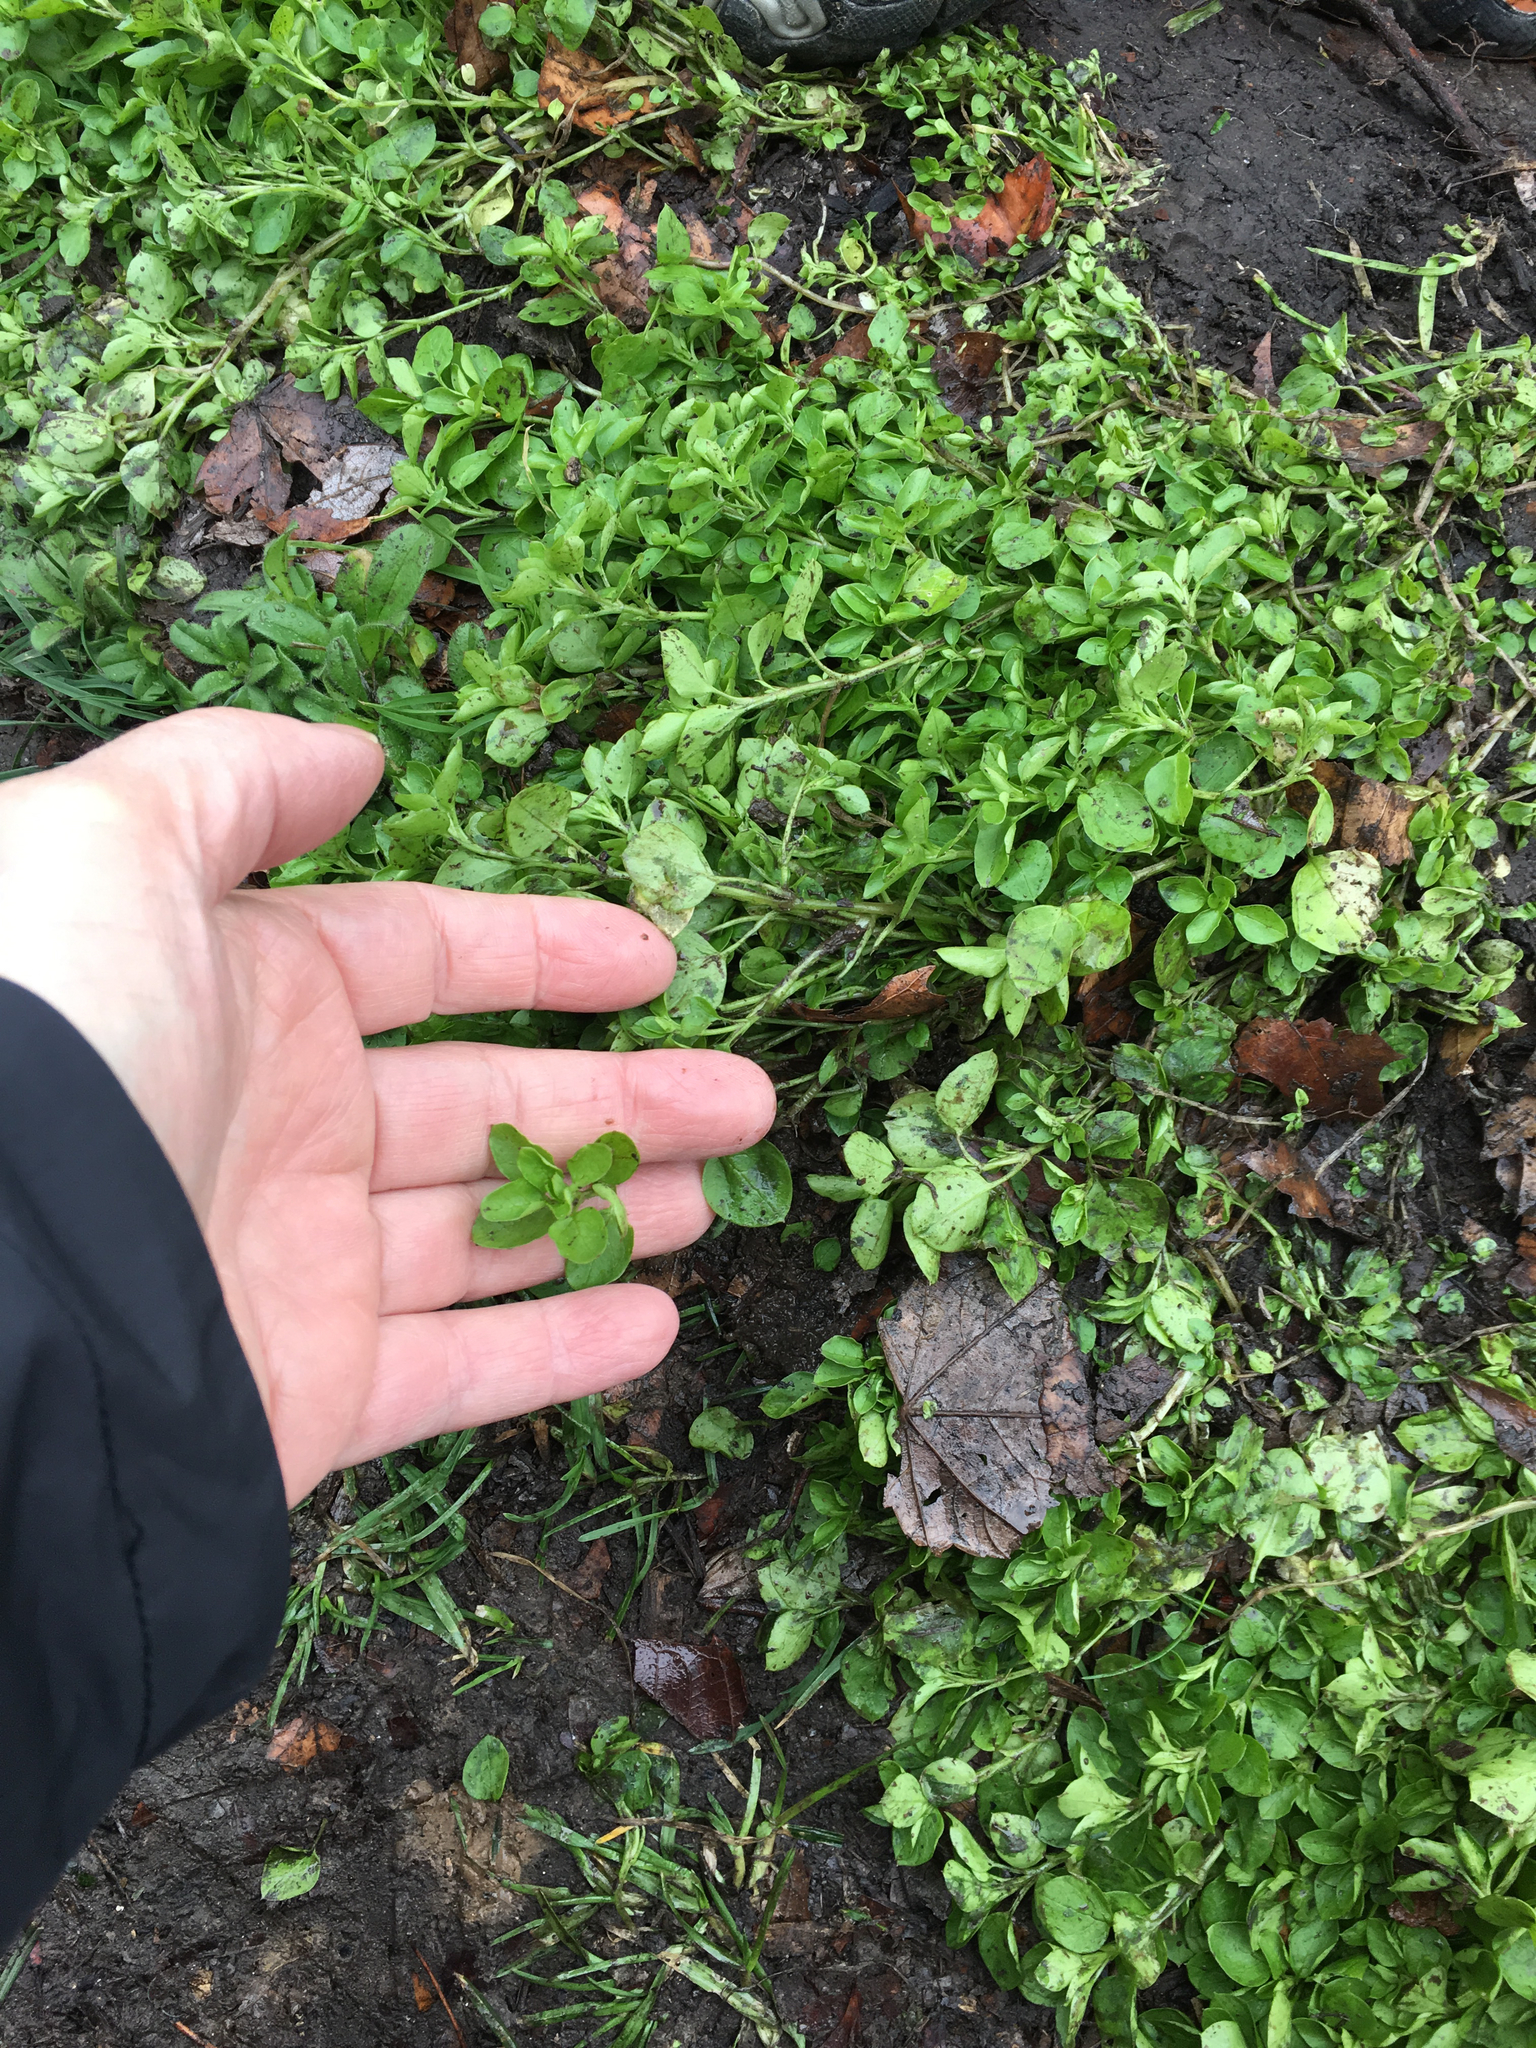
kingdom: Plantae
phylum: Tracheophyta
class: Magnoliopsida
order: Caryophyllales
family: Caryophyllaceae
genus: Stellaria
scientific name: Stellaria media
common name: Common chickweed
